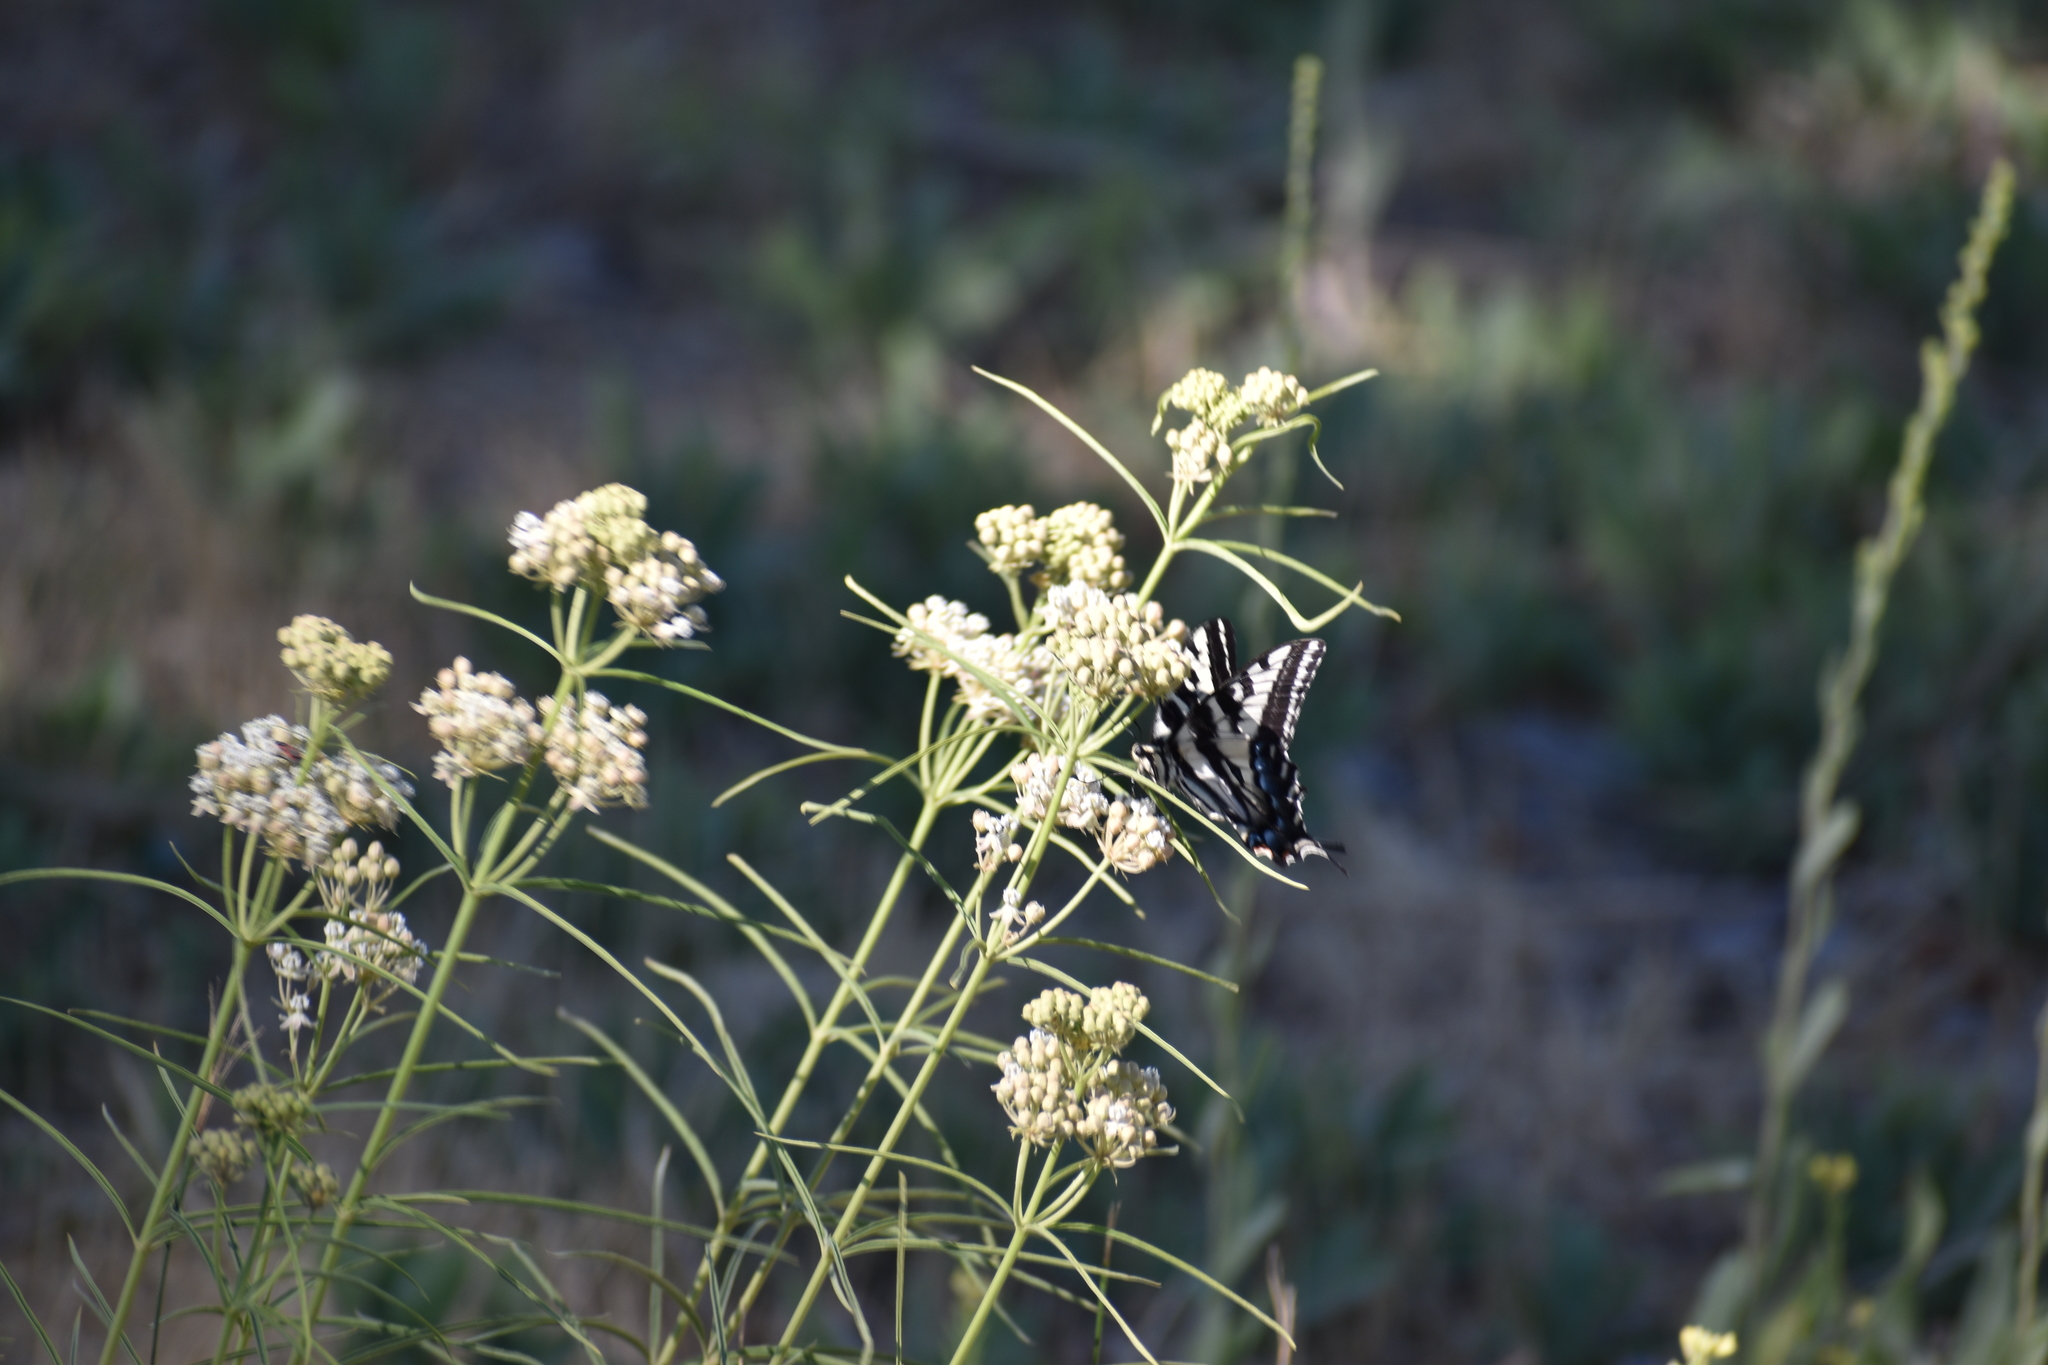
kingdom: Animalia
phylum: Arthropoda
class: Insecta
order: Lepidoptera
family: Papilionidae
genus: Papilio
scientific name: Papilio eurymedon
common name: Pale tiger swallowtail
